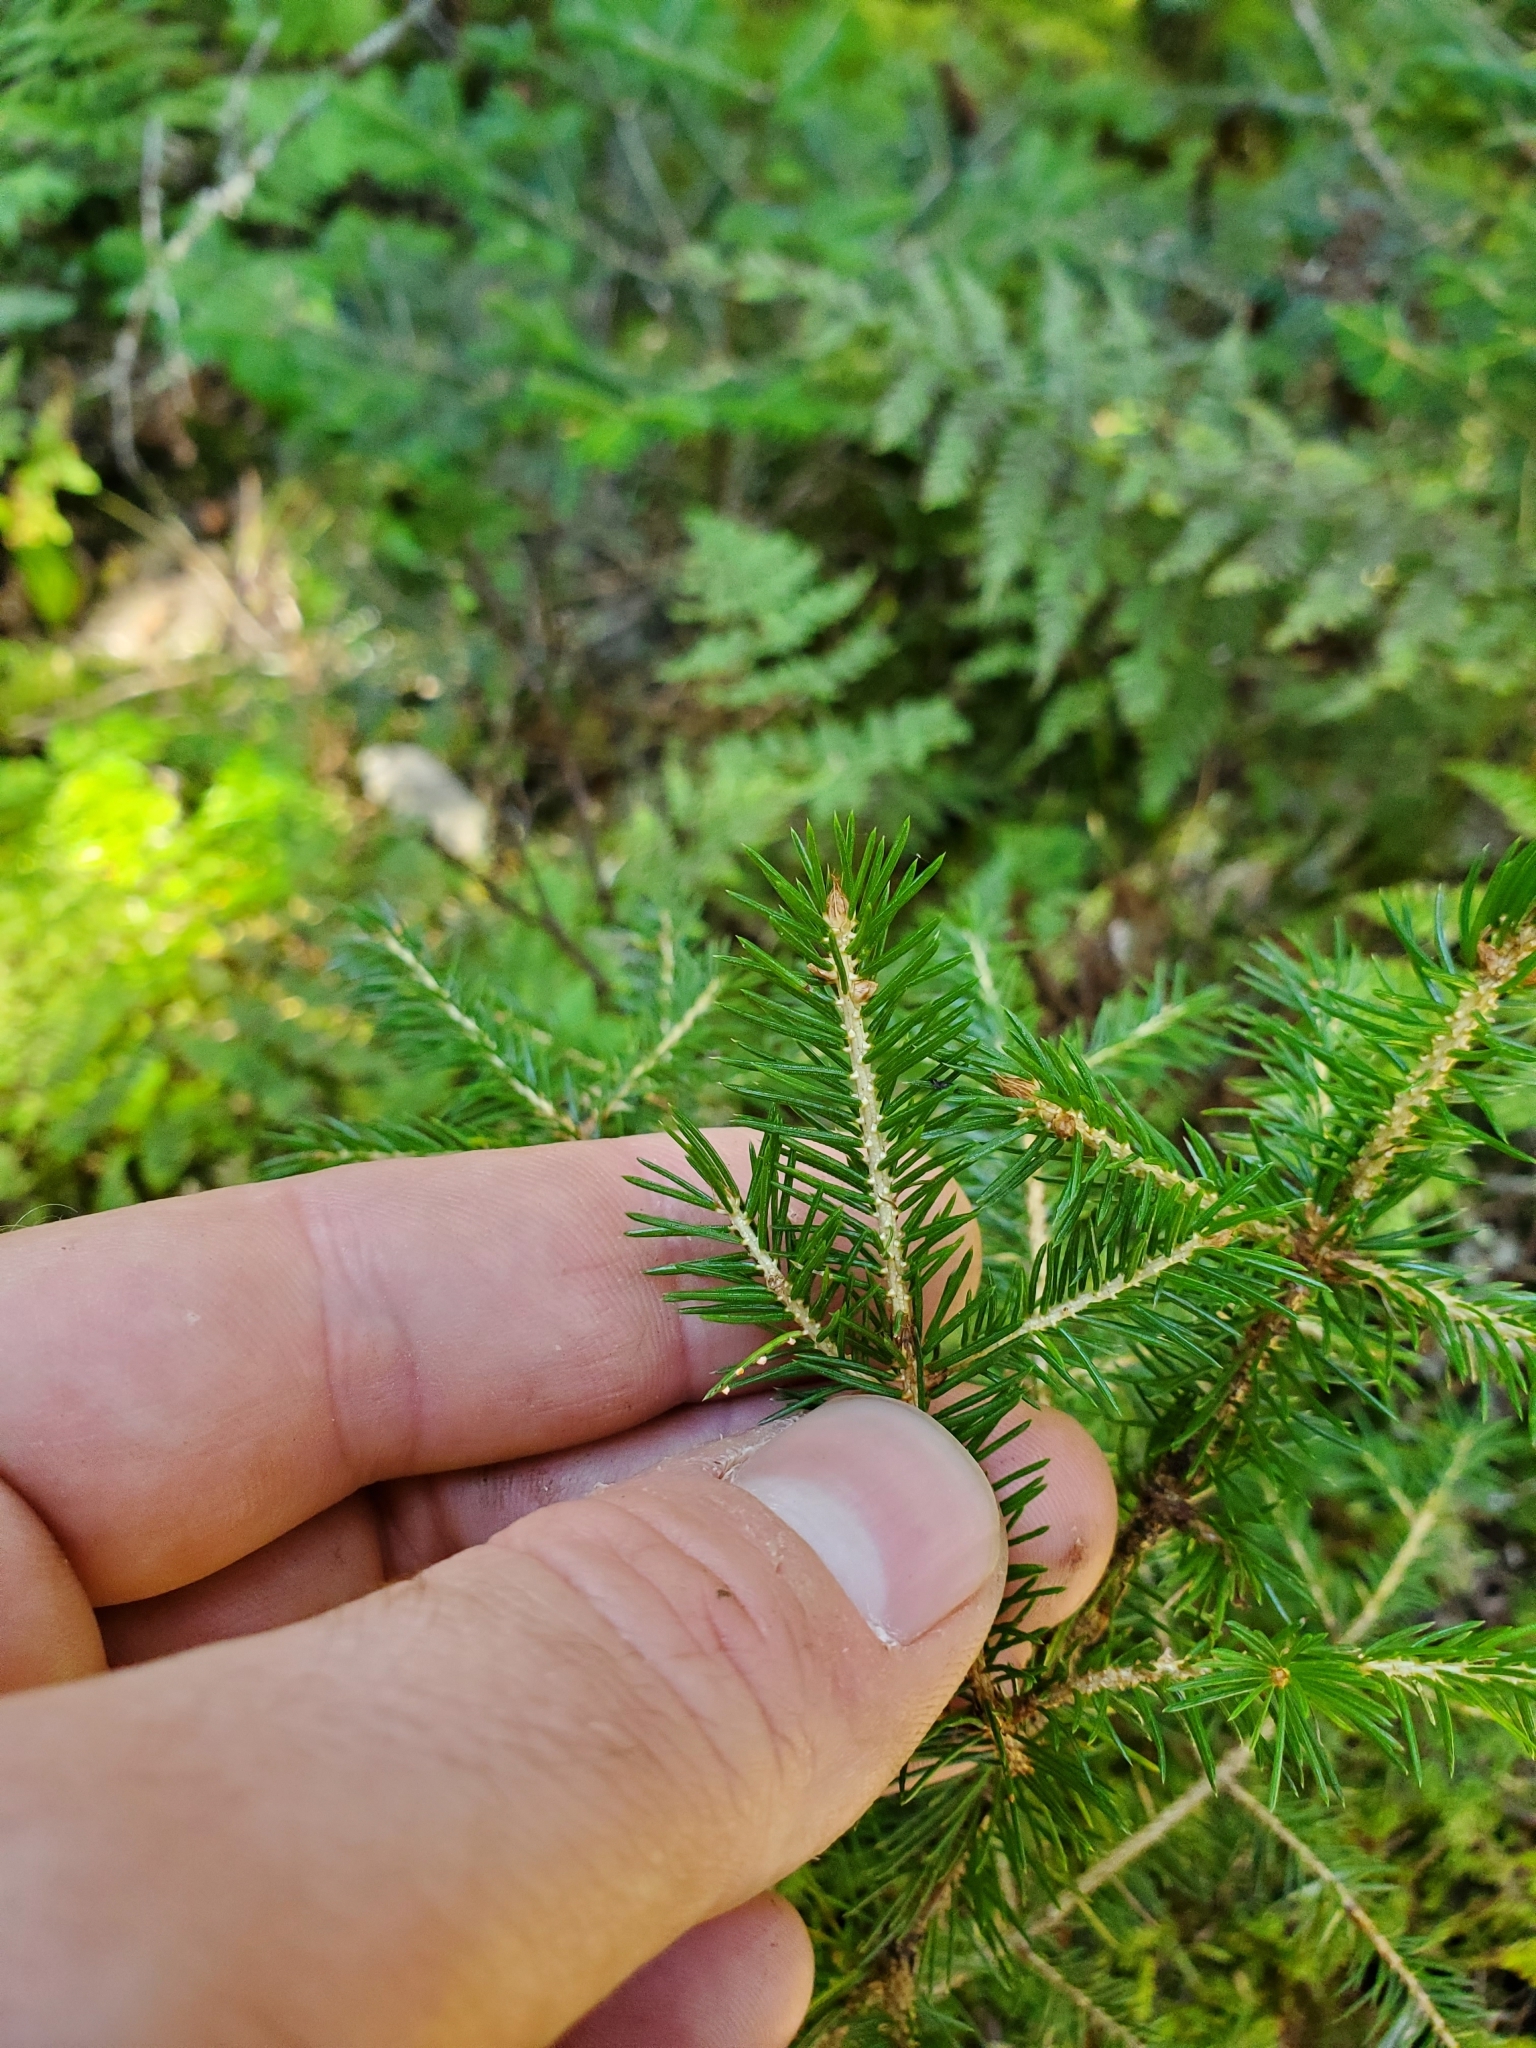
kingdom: Plantae
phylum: Tracheophyta
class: Pinopsida
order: Pinales
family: Pinaceae
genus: Picea
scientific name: Picea rubens
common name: Red spruce
